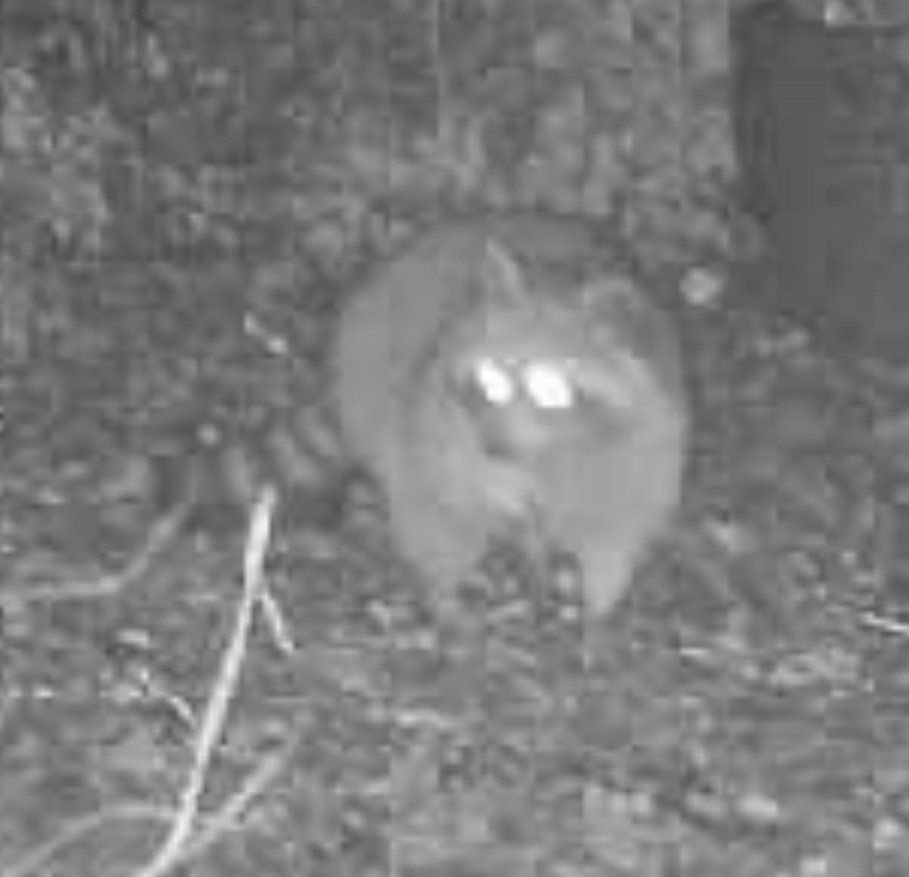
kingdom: Animalia
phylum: Chordata
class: Mammalia
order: Carnivora
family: Procyonidae
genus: Procyon
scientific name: Procyon lotor
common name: Raccoon
